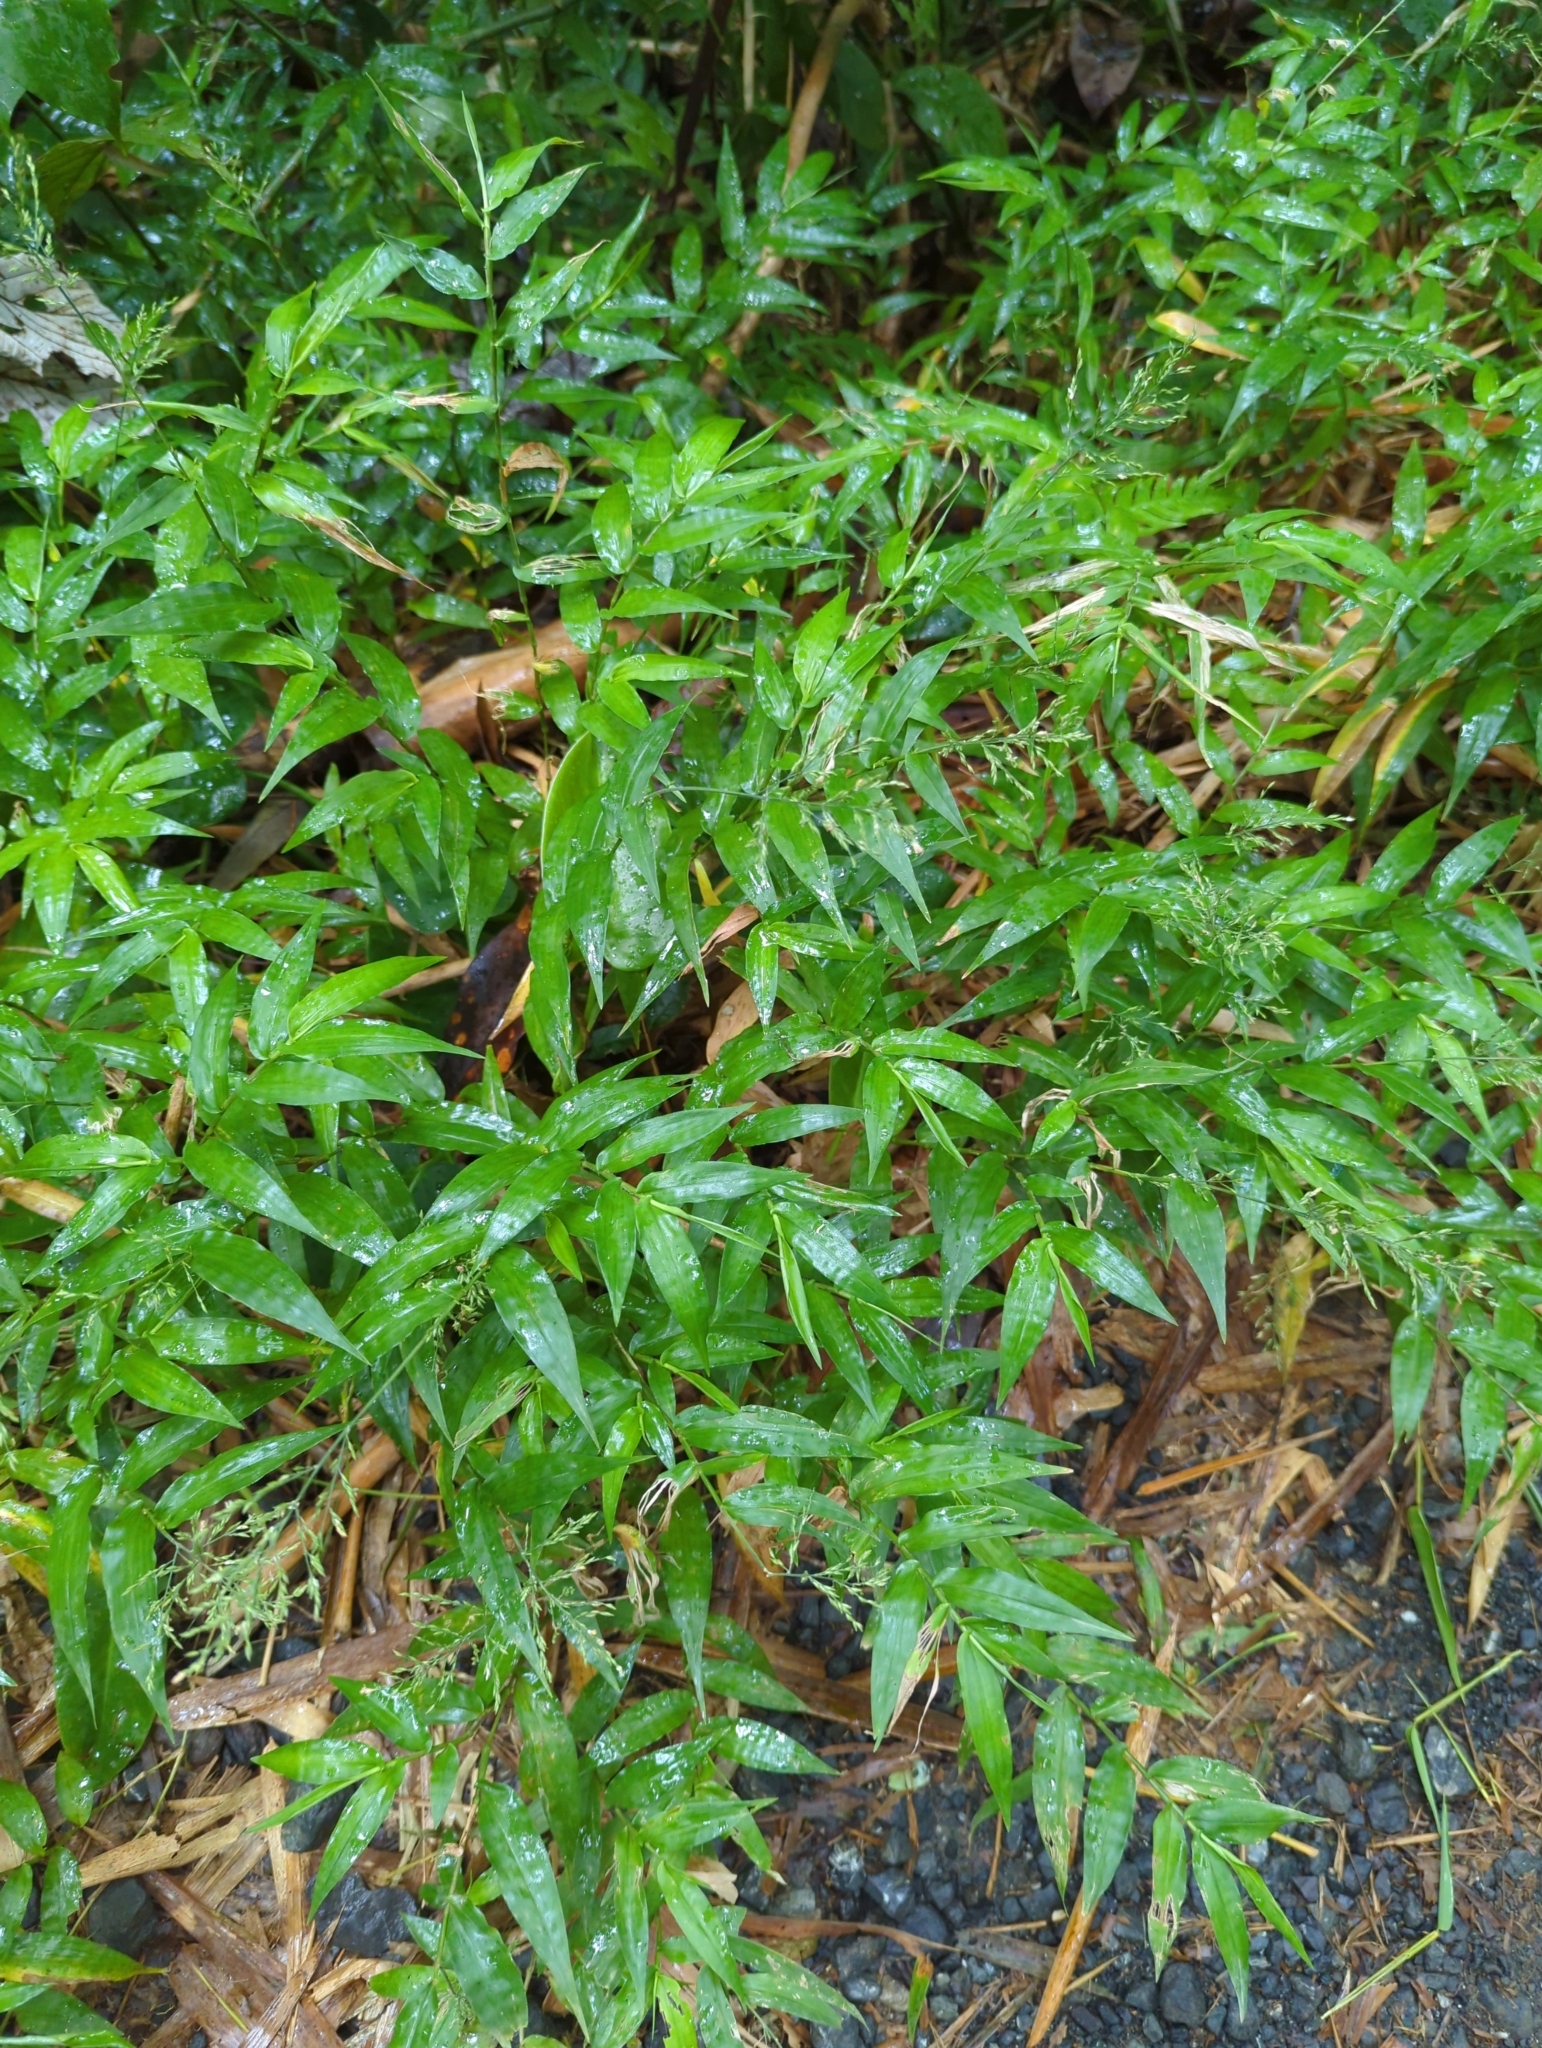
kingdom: Plantae
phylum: Tracheophyta
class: Liliopsida
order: Poales
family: Poaceae
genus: Ichnanthus
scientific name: Ichnanthus pallens
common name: Water grass
